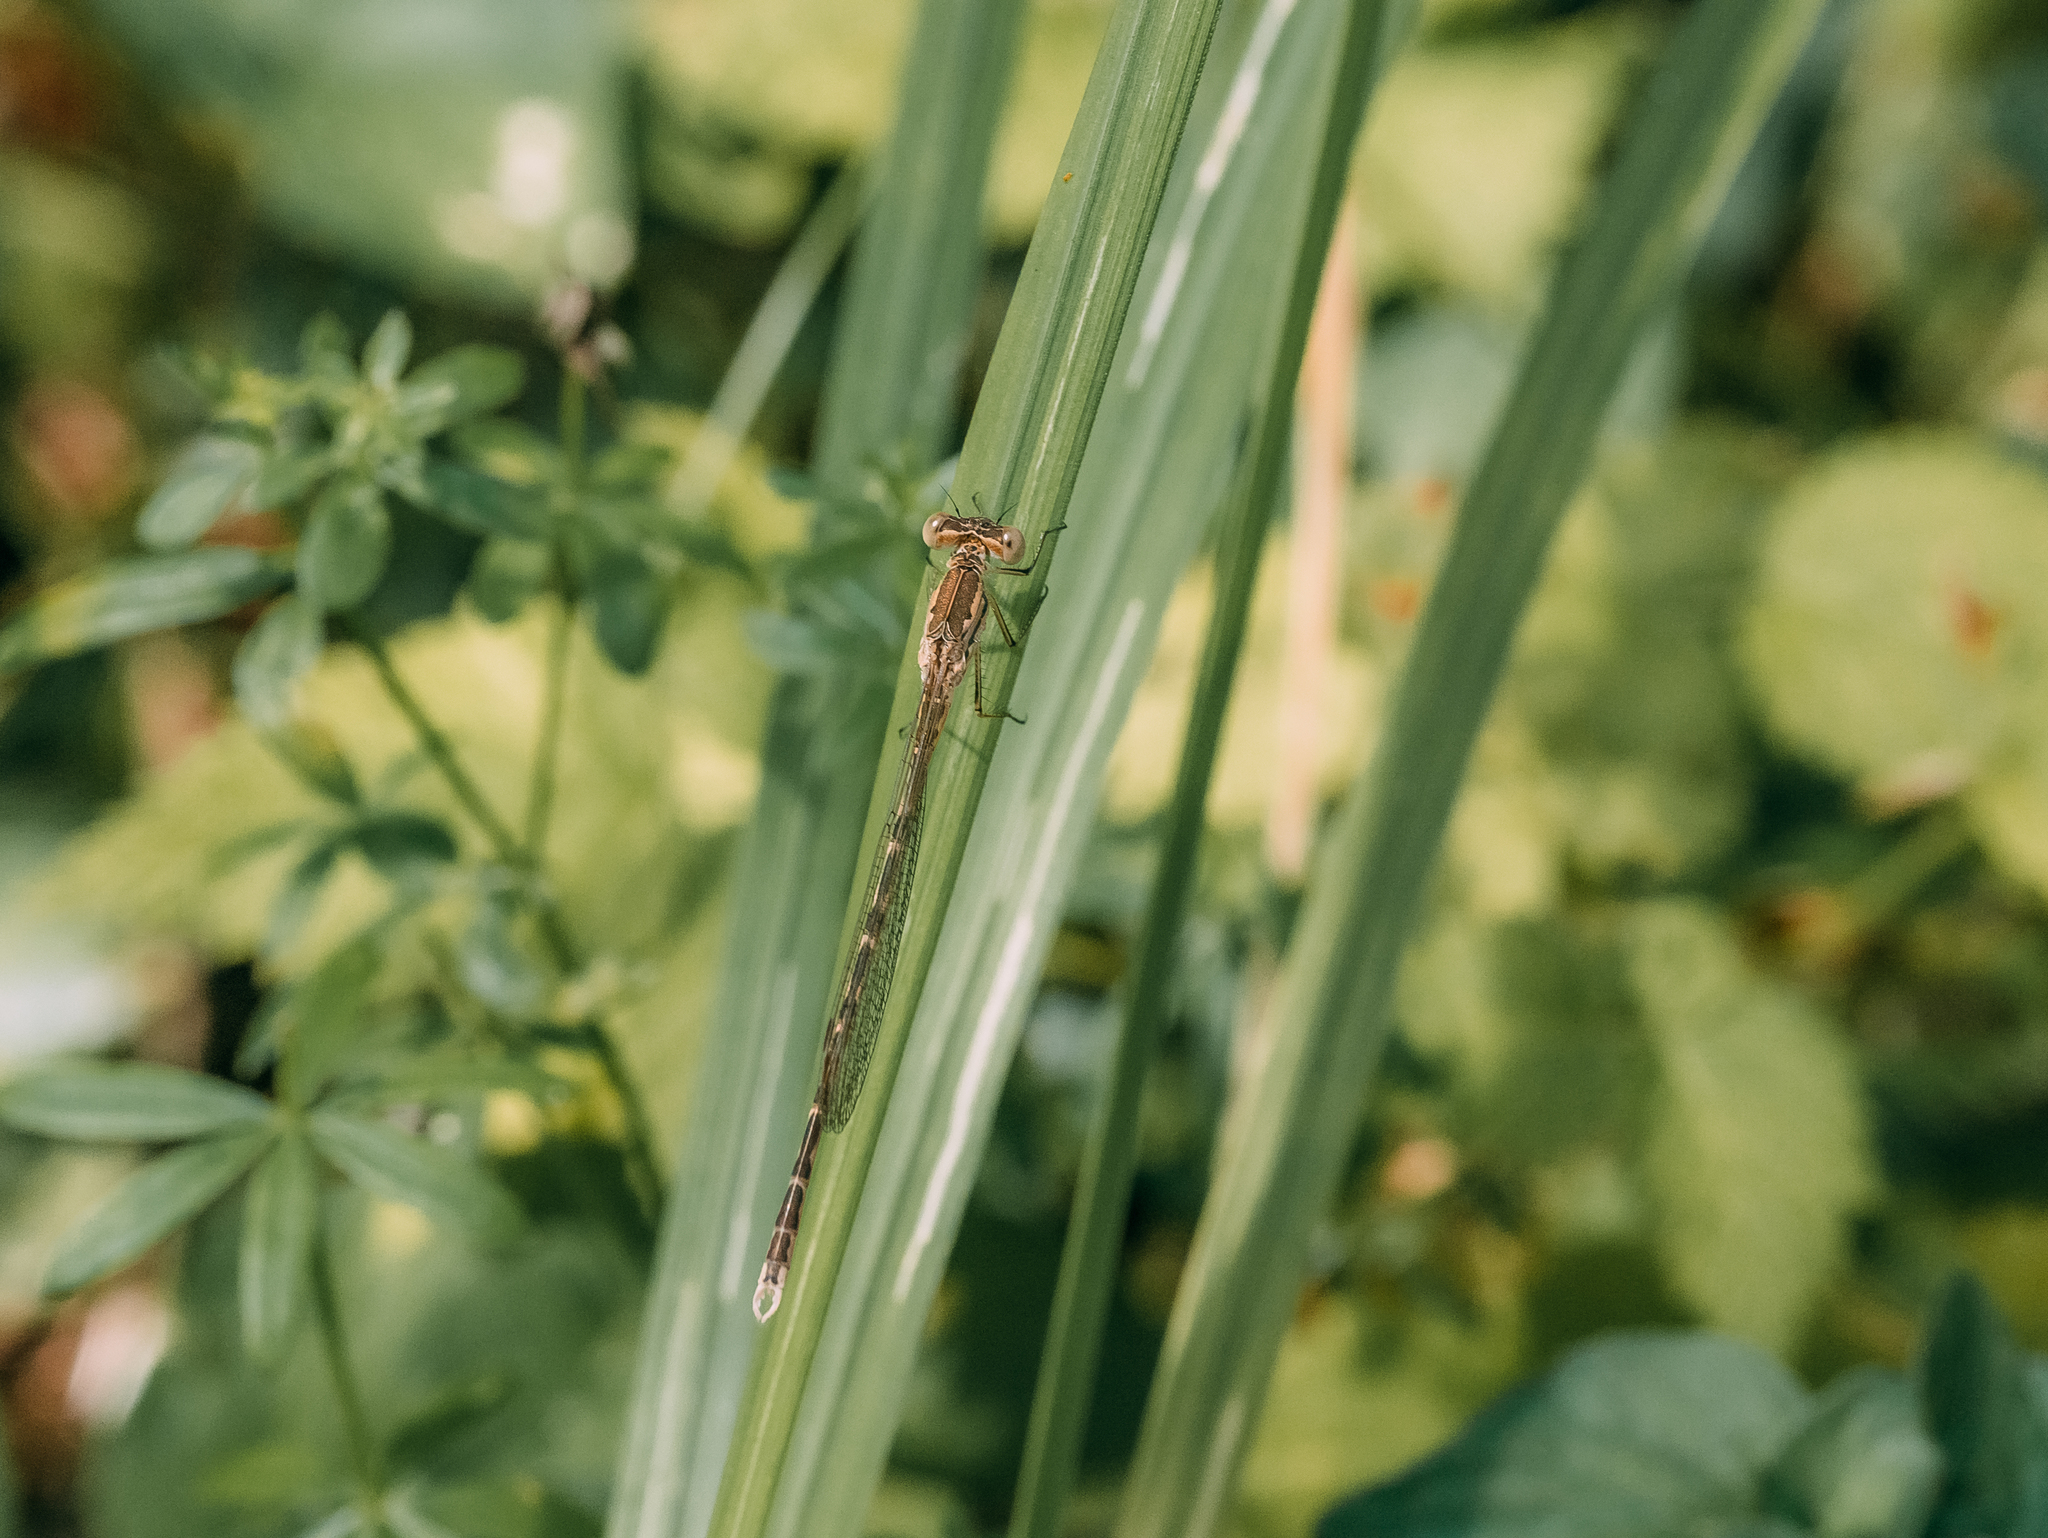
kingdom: Animalia
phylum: Arthropoda
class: Insecta
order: Odonata
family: Lestidae
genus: Sympecma
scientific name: Sympecma paedisca
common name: Siberian winter damsel
